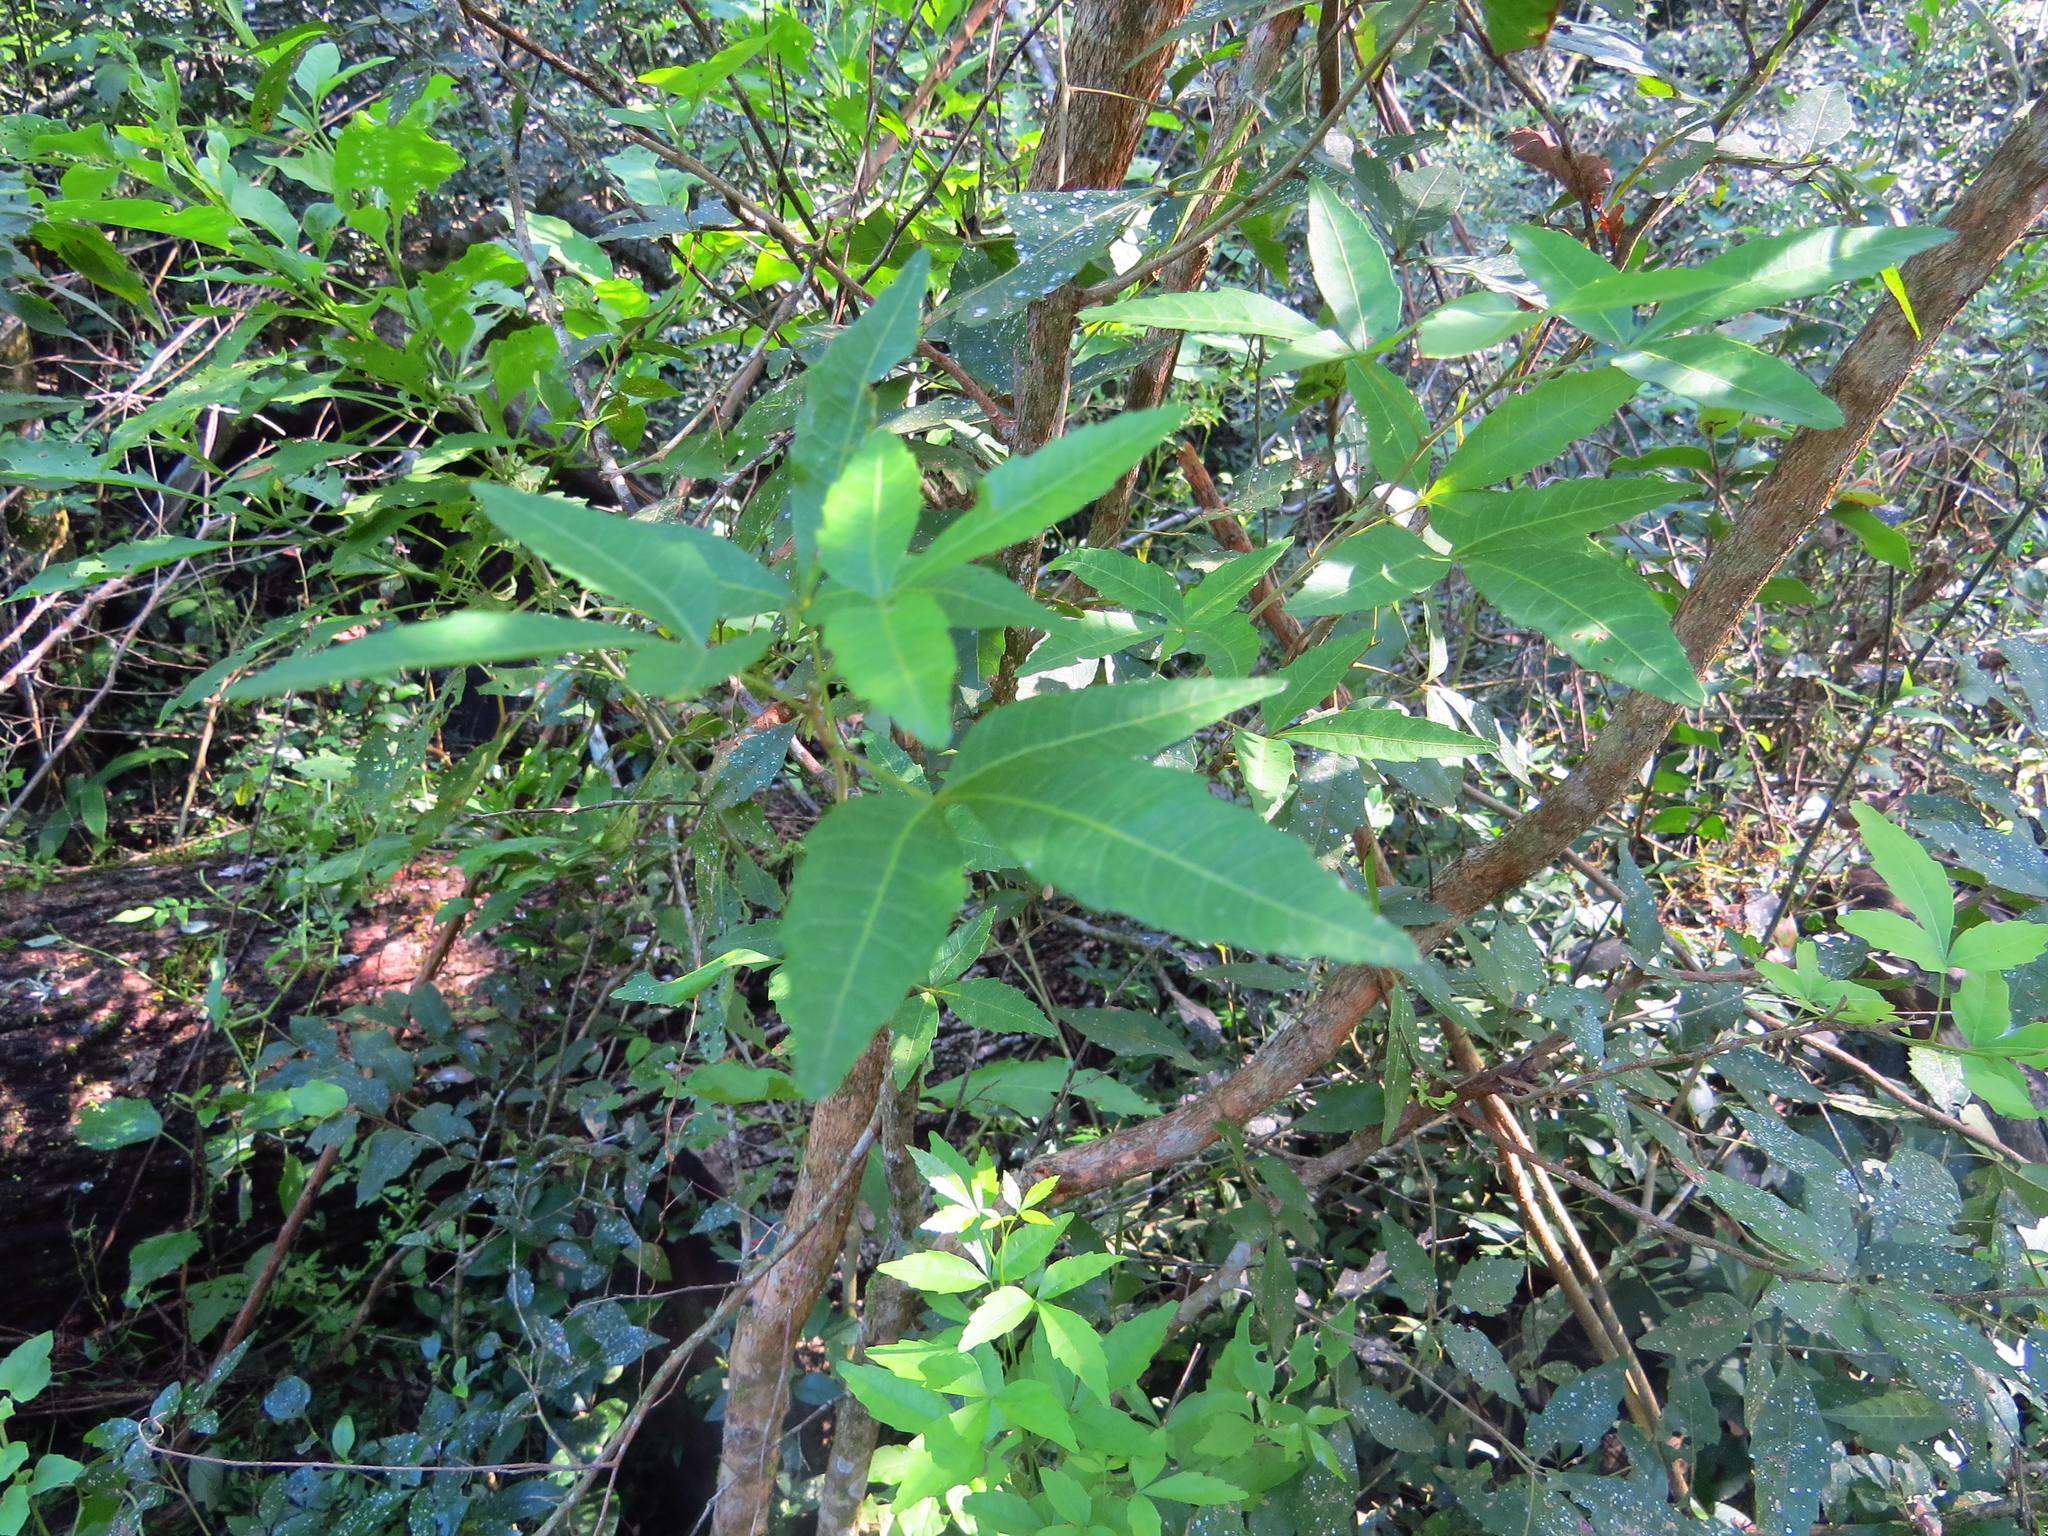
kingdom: Plantae
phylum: Tracheophyta
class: Magnoliopsida
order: Sapindales
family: Sapindaceae
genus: Allophylus
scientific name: Allophylus edulis
